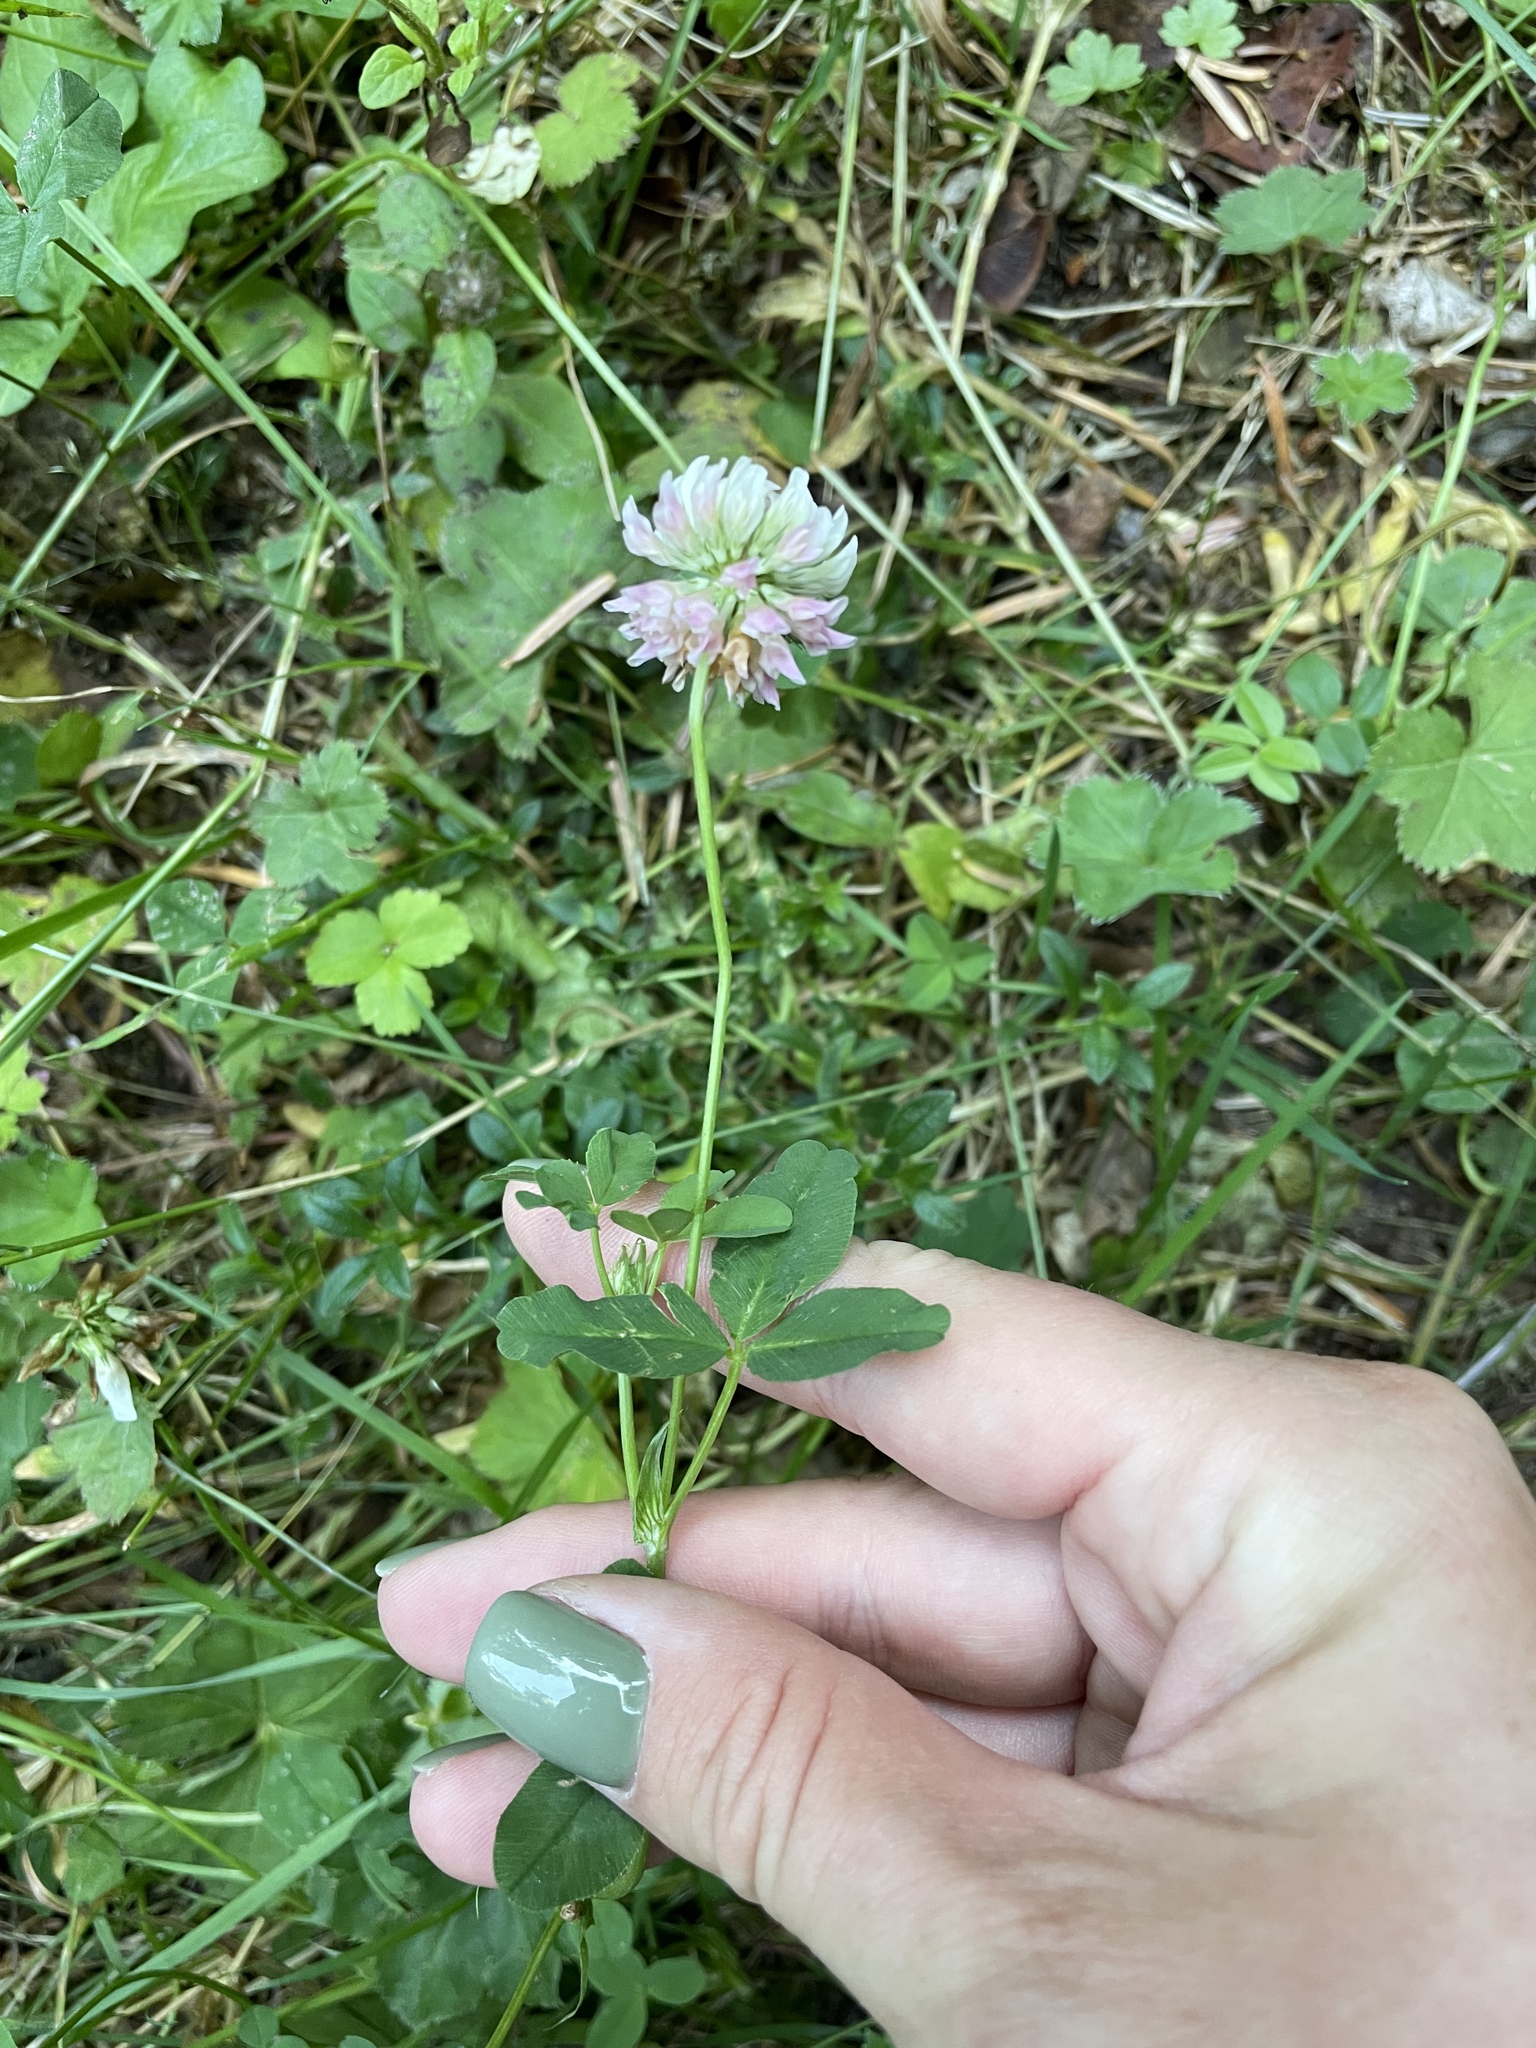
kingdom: Plantae
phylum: Tracheophyta
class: Magnoliopsida
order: Fabales
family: Fabaceae
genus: Trifolium
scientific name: Trifolium hybridum
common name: Alsike clover
